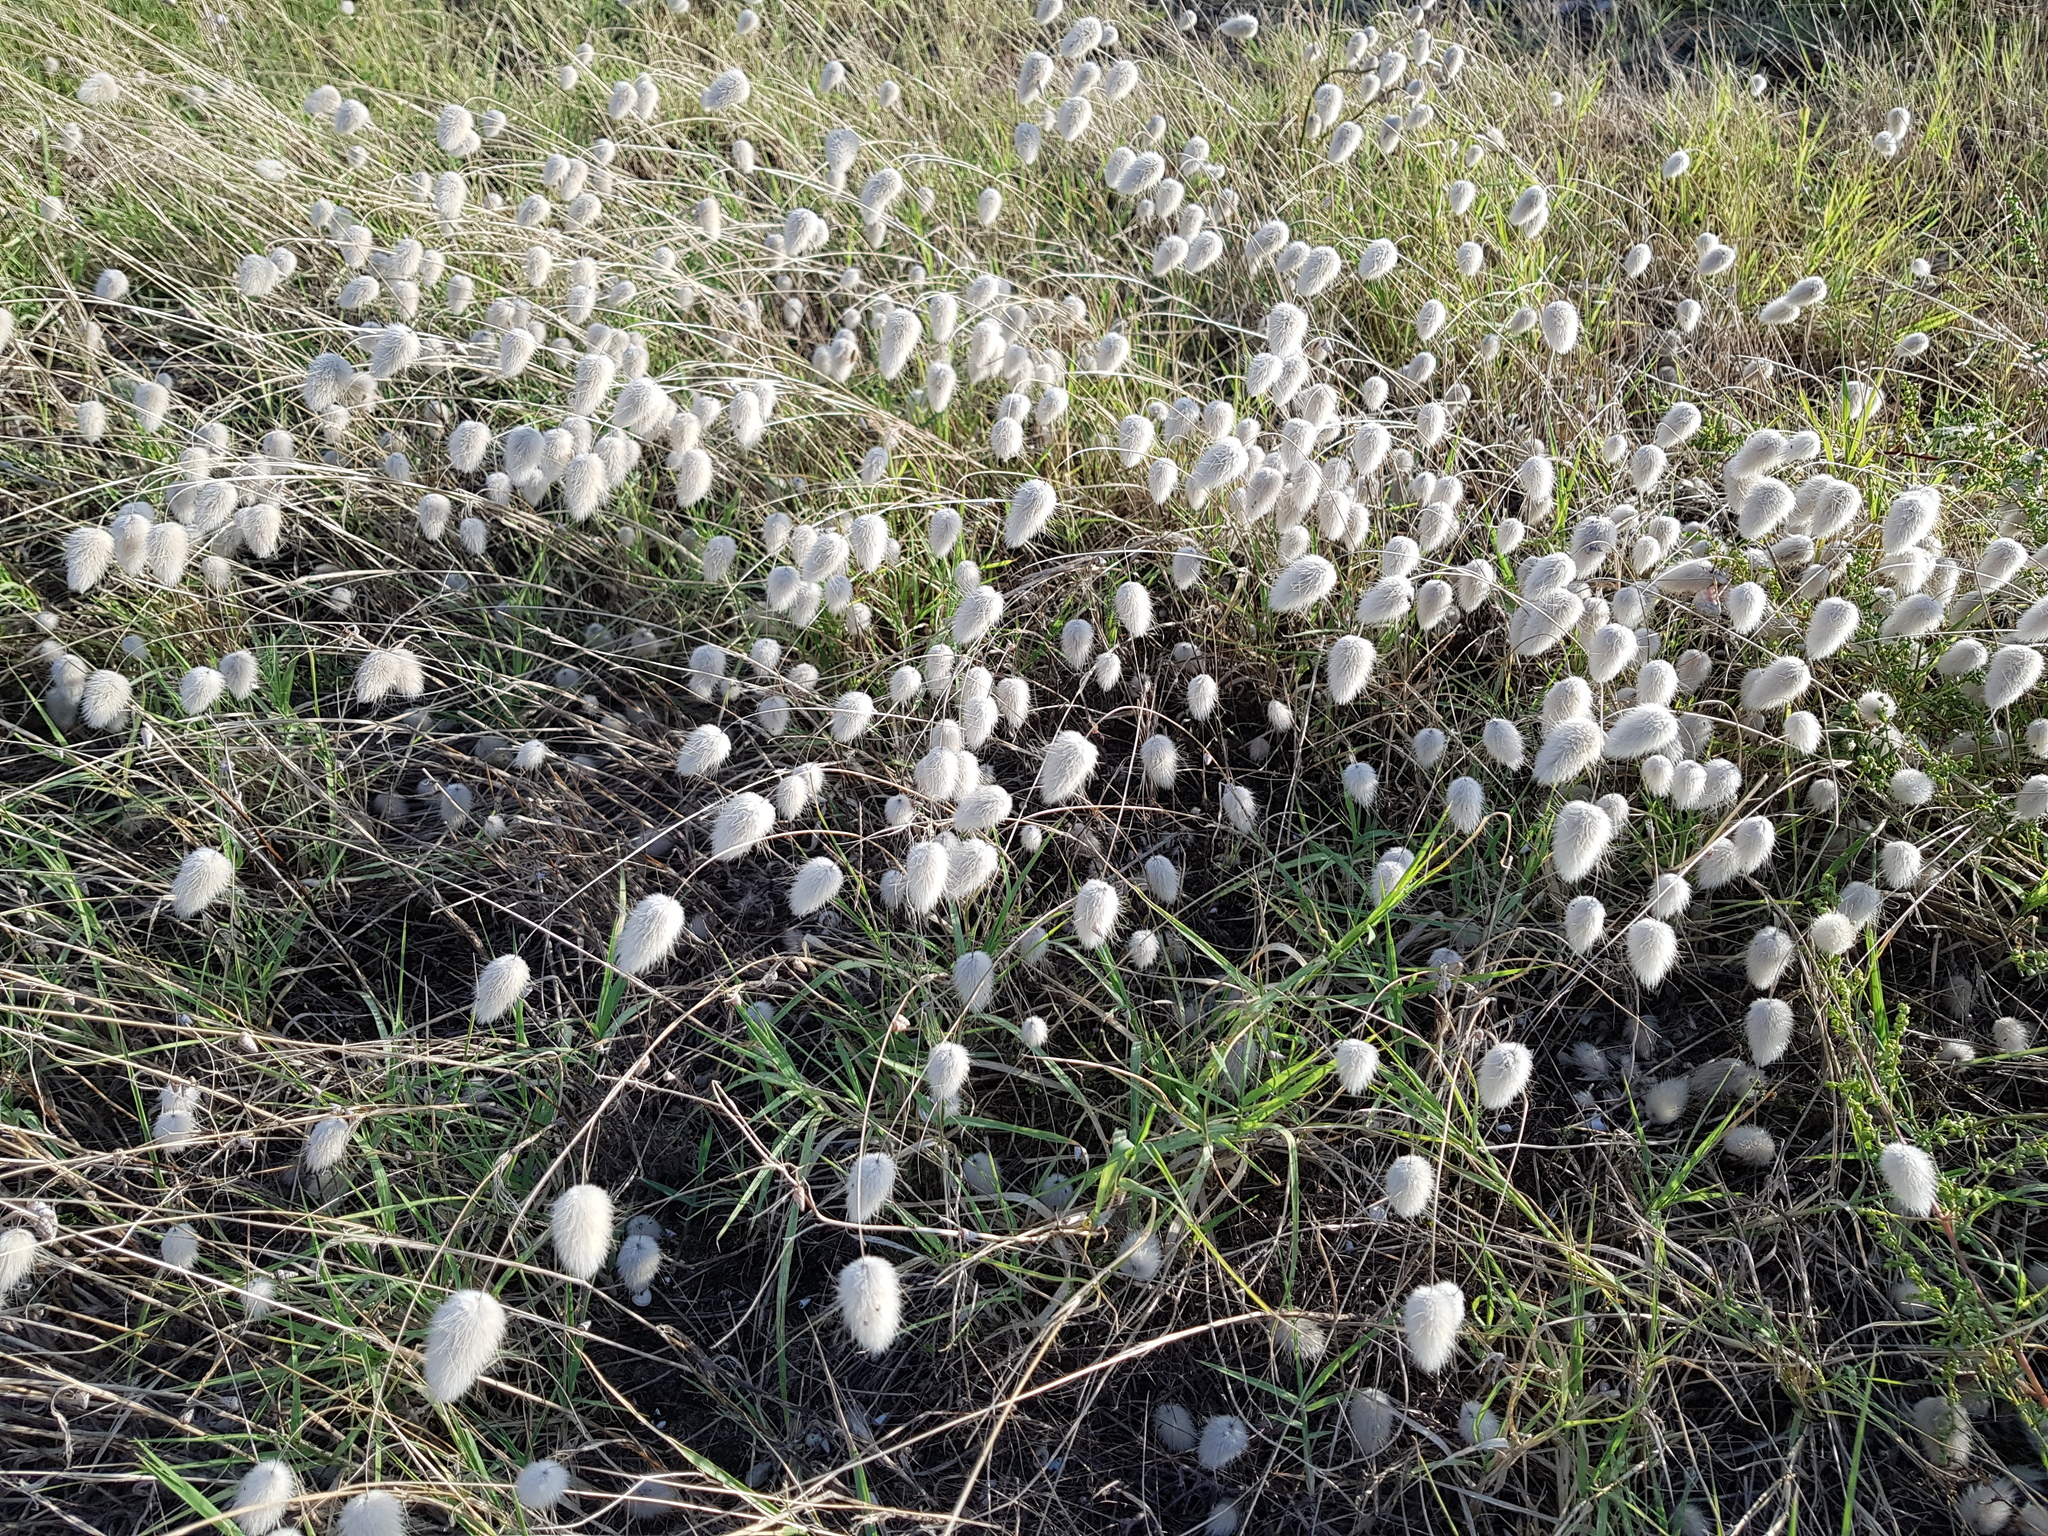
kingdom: Plantae
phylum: Tracheophyta
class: Liliopsida
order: Poales
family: Poaceae
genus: Lagurus
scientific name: Lagurus ovatus
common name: Hare's-tail
